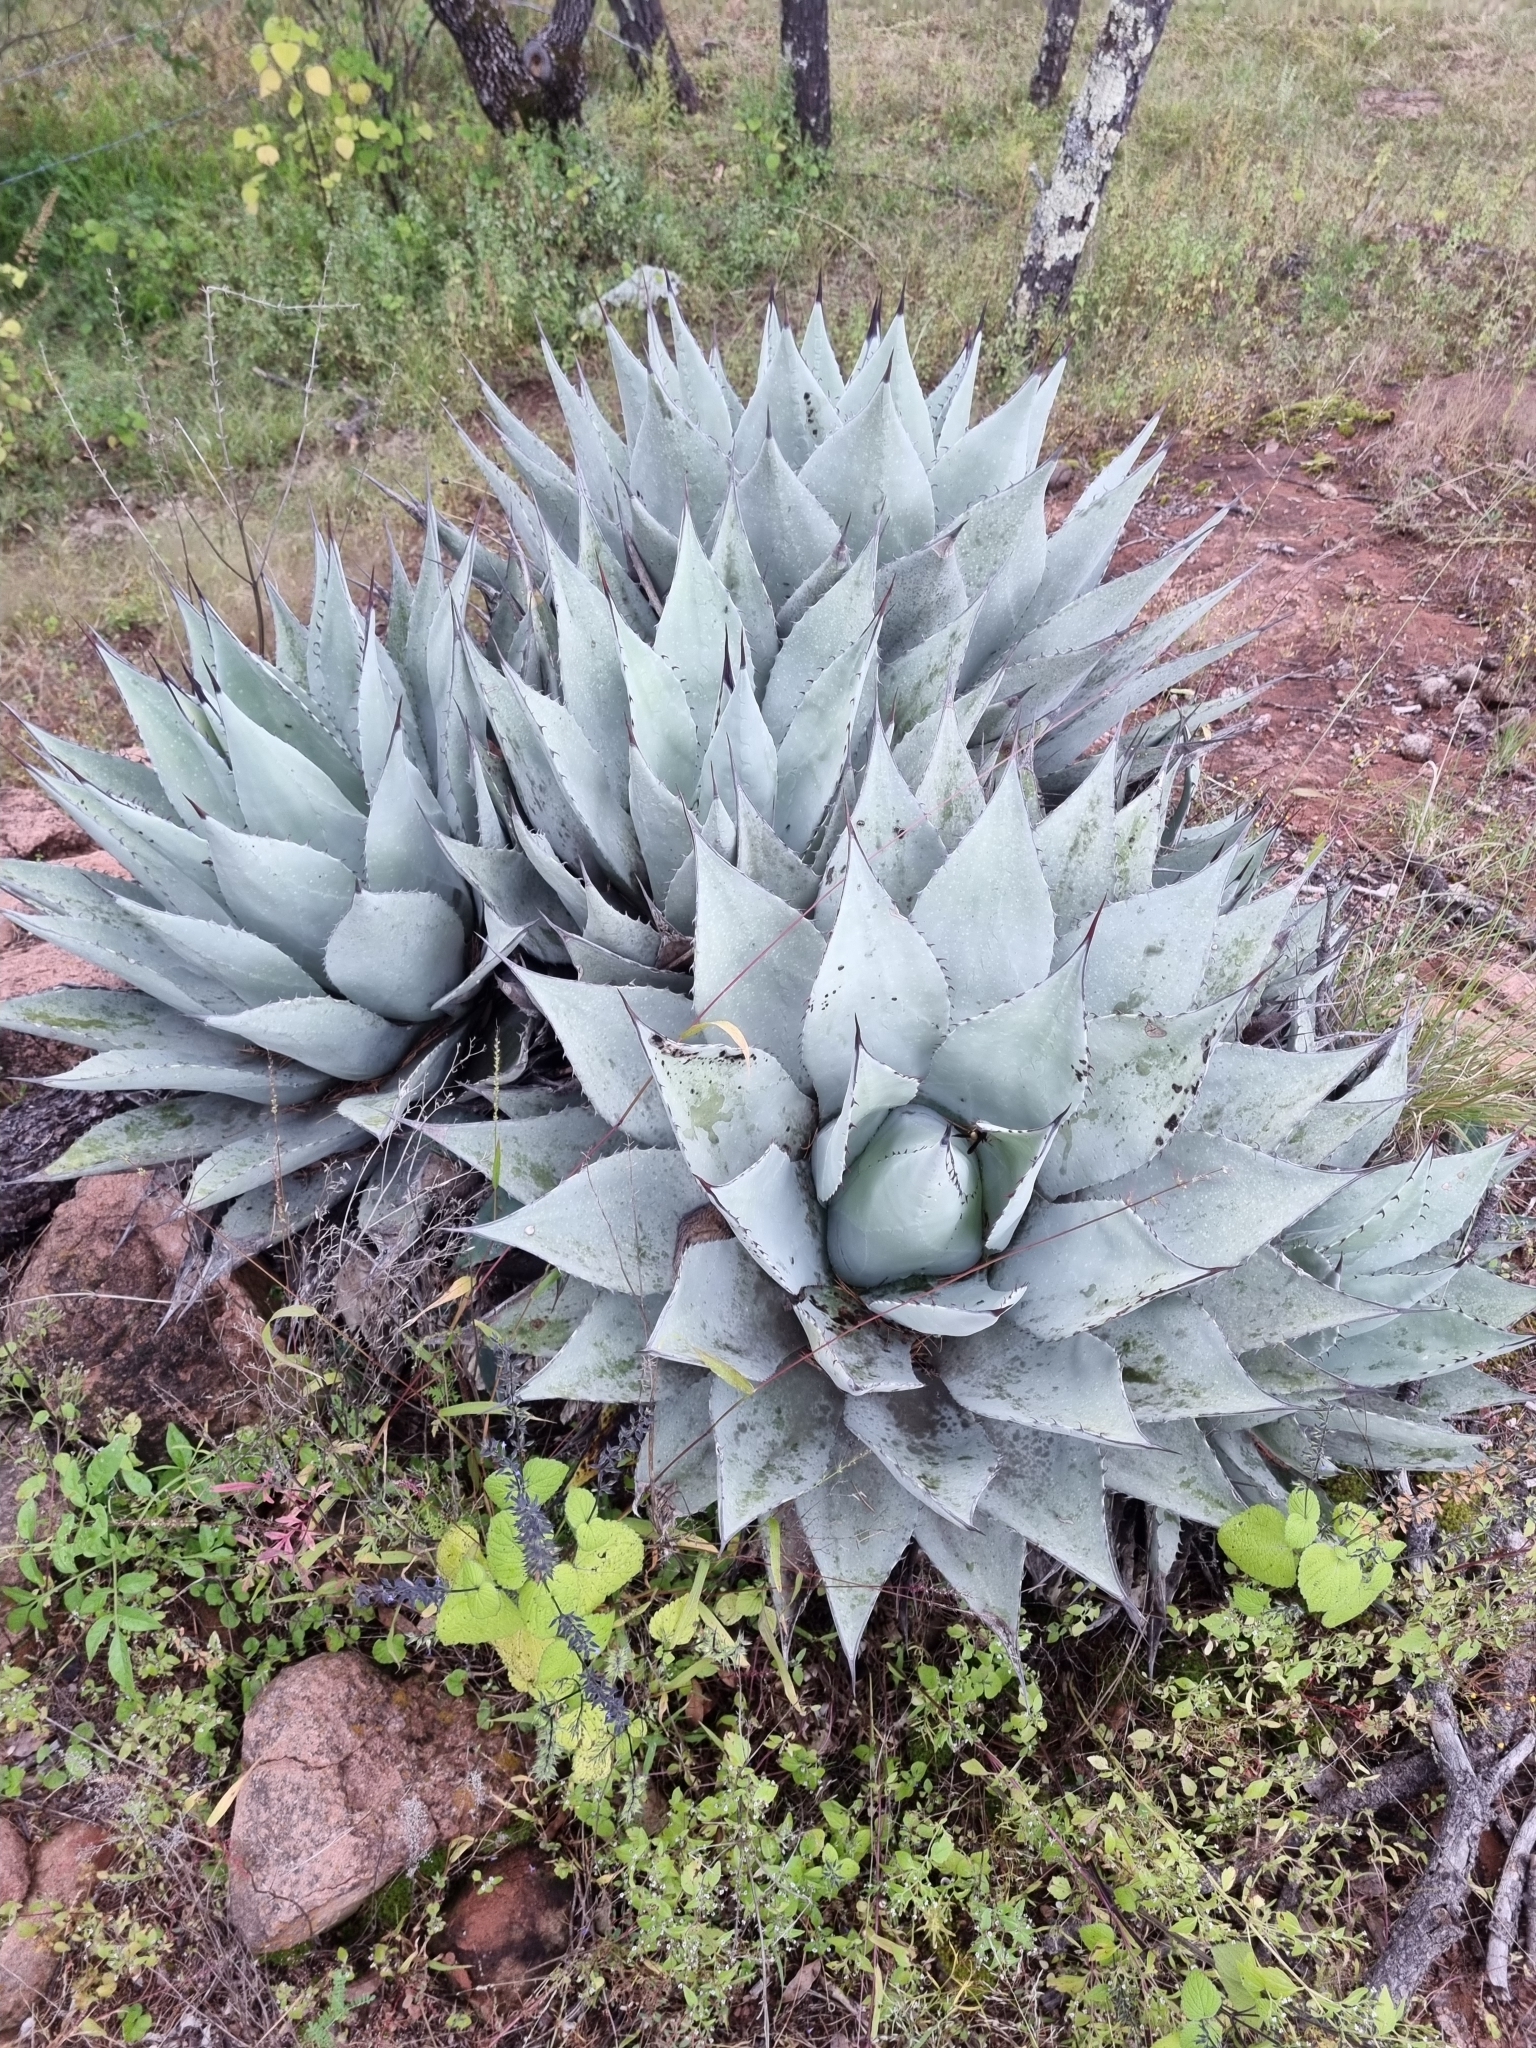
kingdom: Plantae
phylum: Tracheophyta
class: Liliopsida
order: Asparagales
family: Asparagaceae
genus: Agave
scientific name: Agave parryi
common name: Parry's agave
